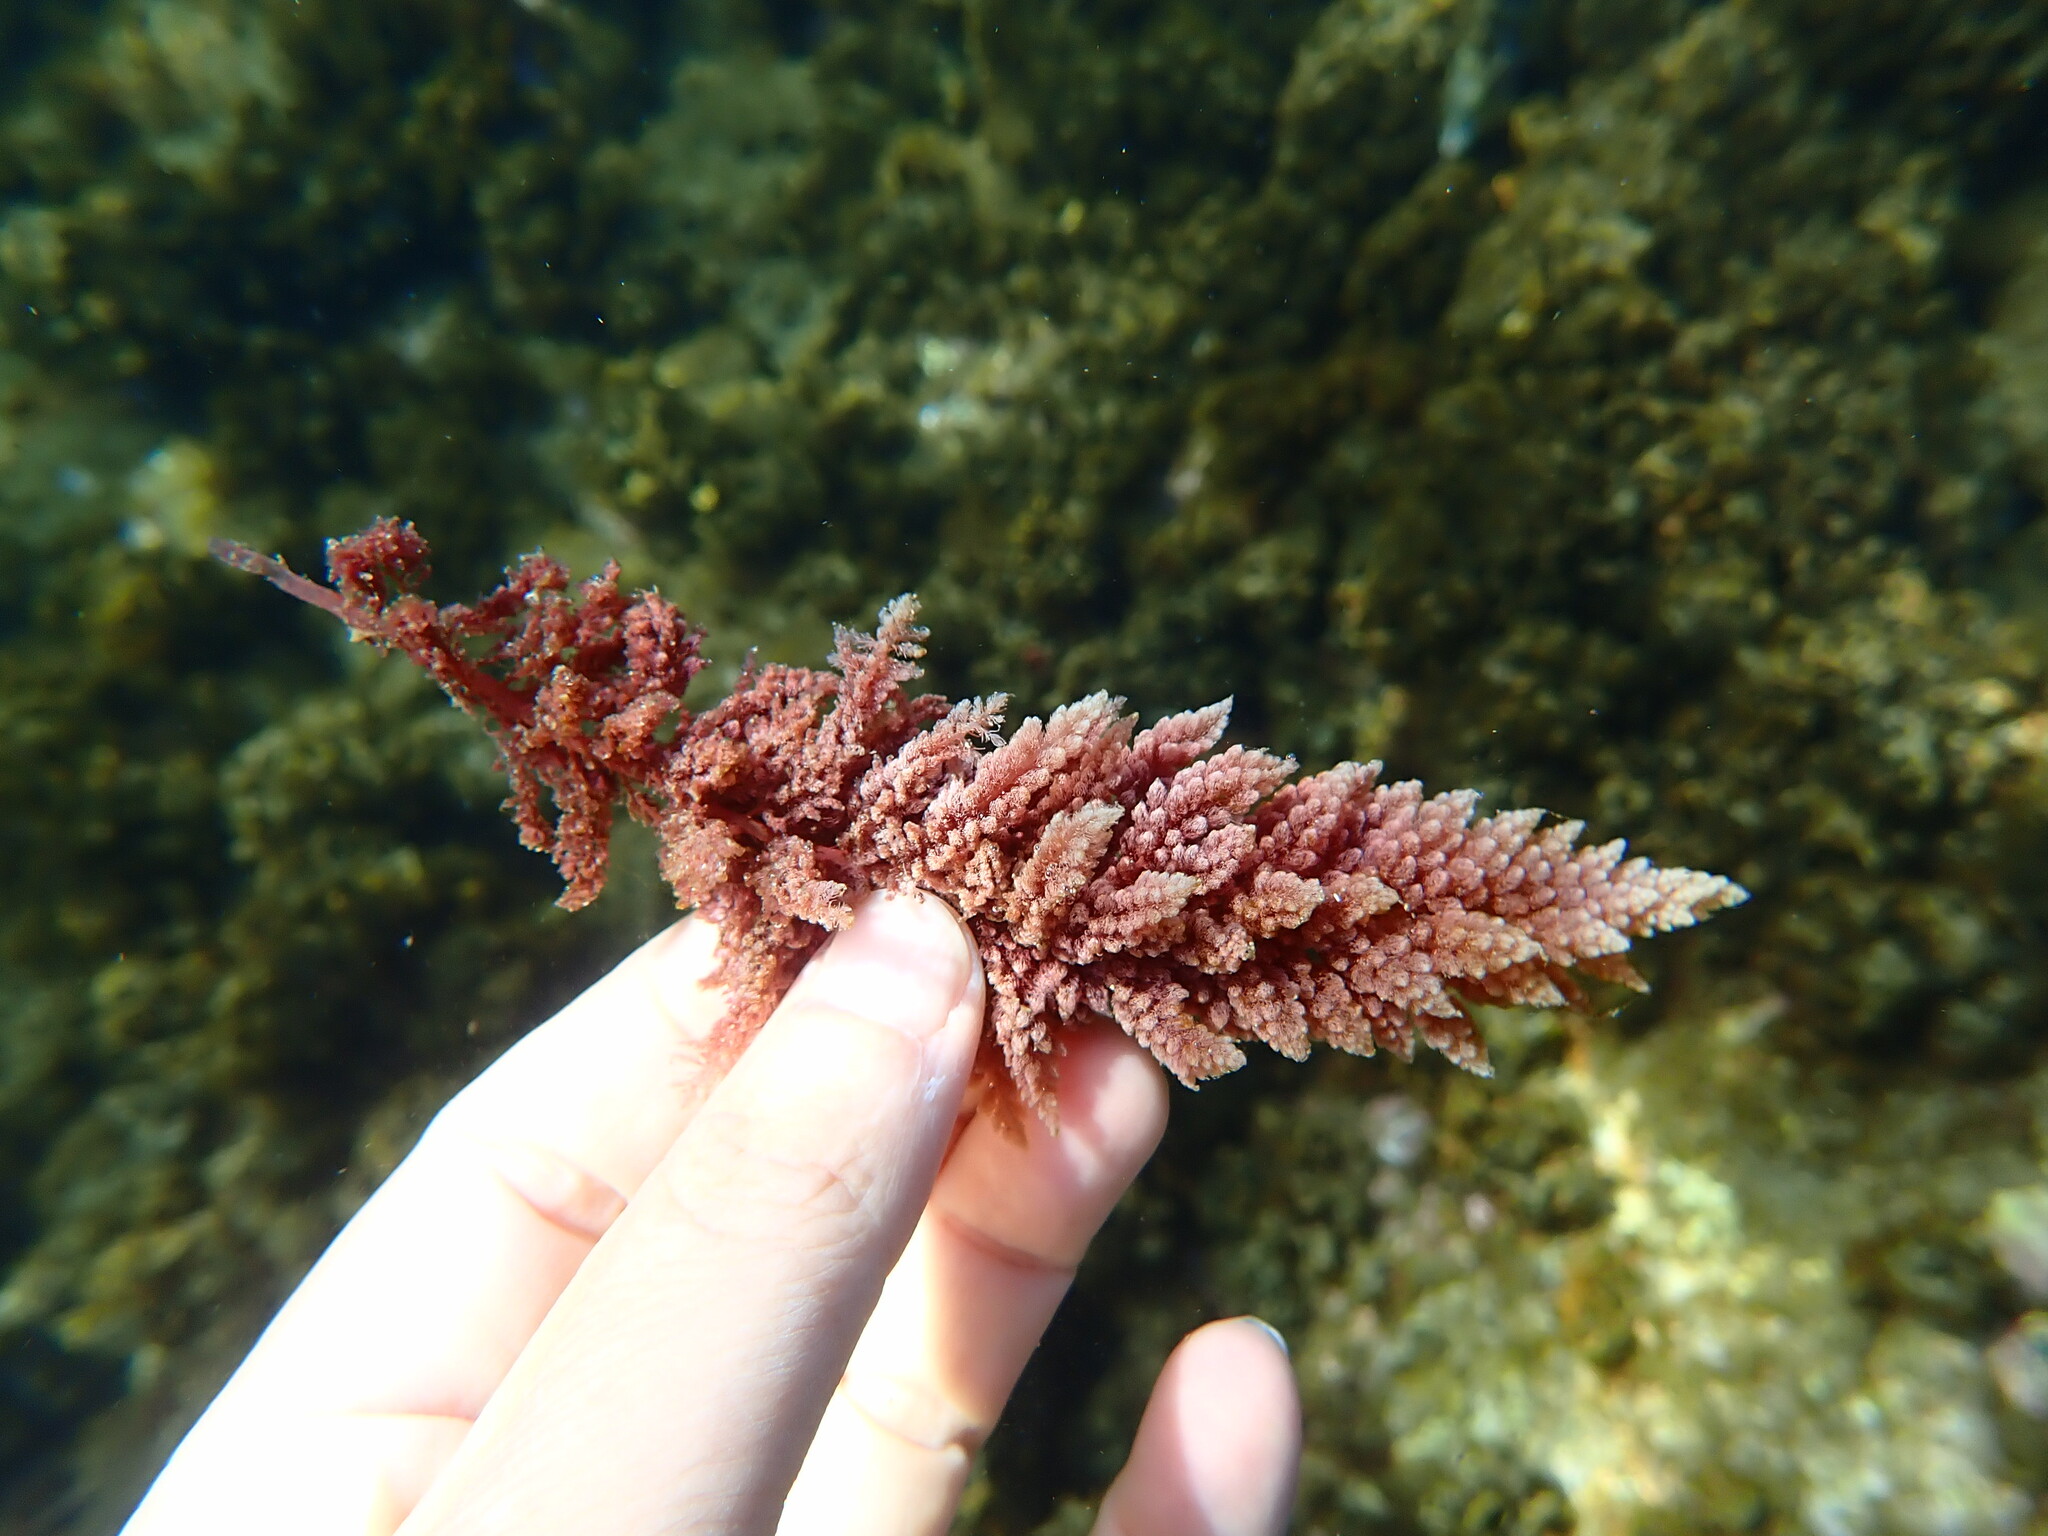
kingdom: Plantae
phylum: Rhodophyta
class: Florideophyceae
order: Bonnemaisoniales
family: Bonnemaisoniaceae
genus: Asparagopsis
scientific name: Asparagopsis taxiformis
